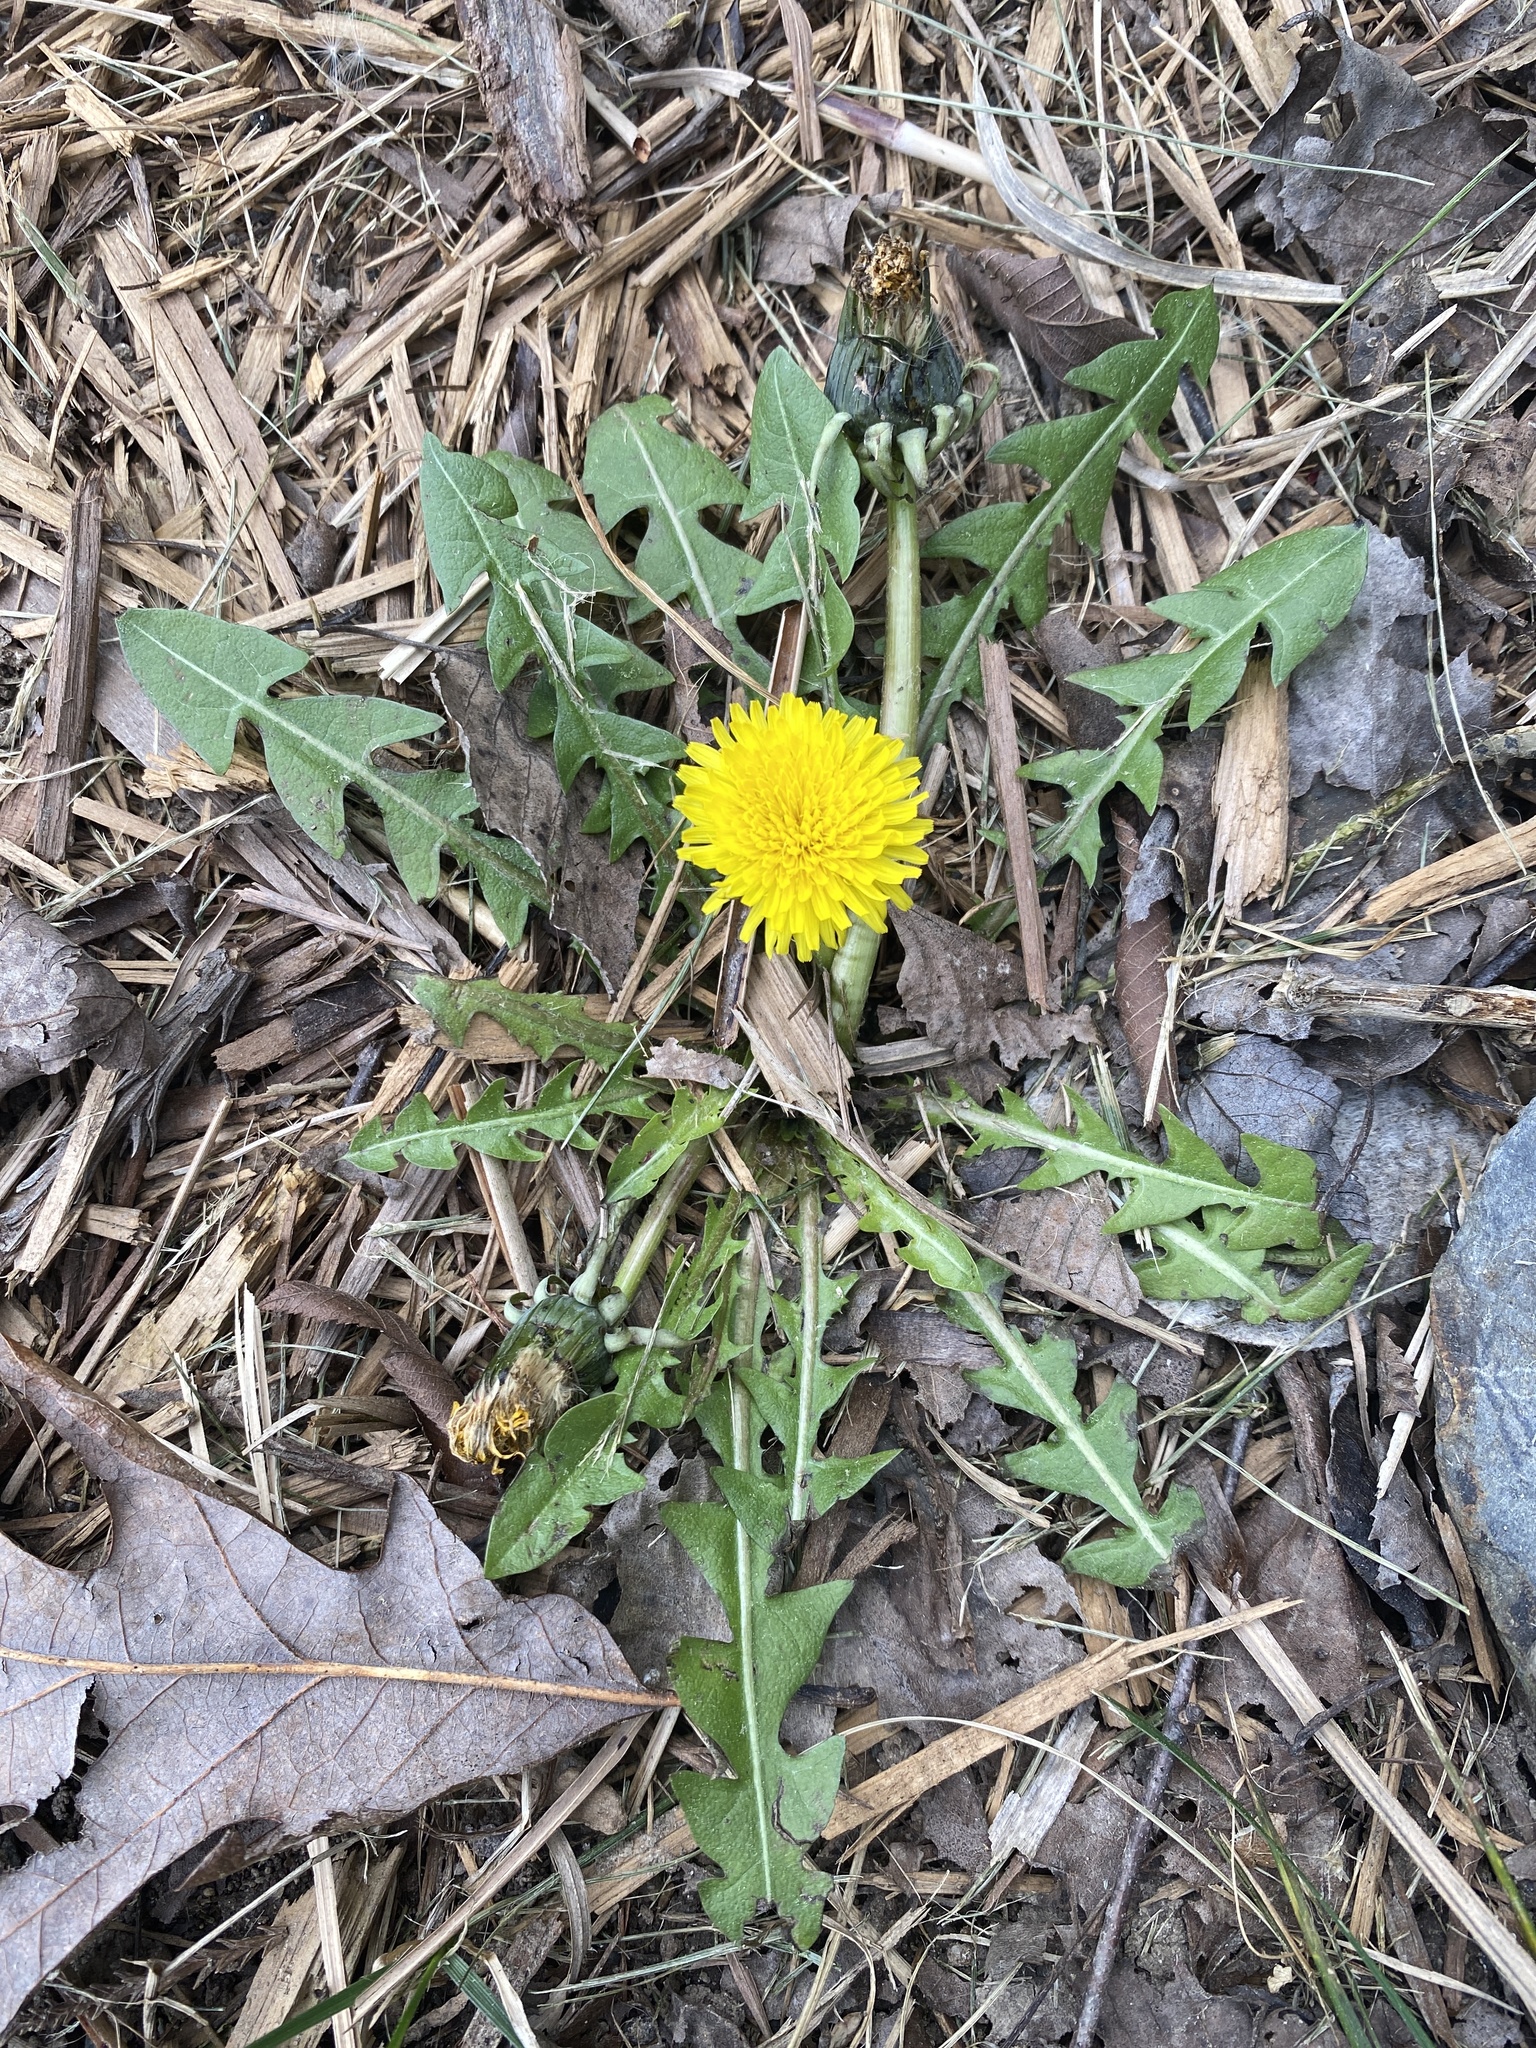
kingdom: Plantae
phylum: Tracheophyta
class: Magnoliopsida
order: Asterales
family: Asteraceae
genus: Taraxacum
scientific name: Taraxacum officinale
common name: Common dandelion
